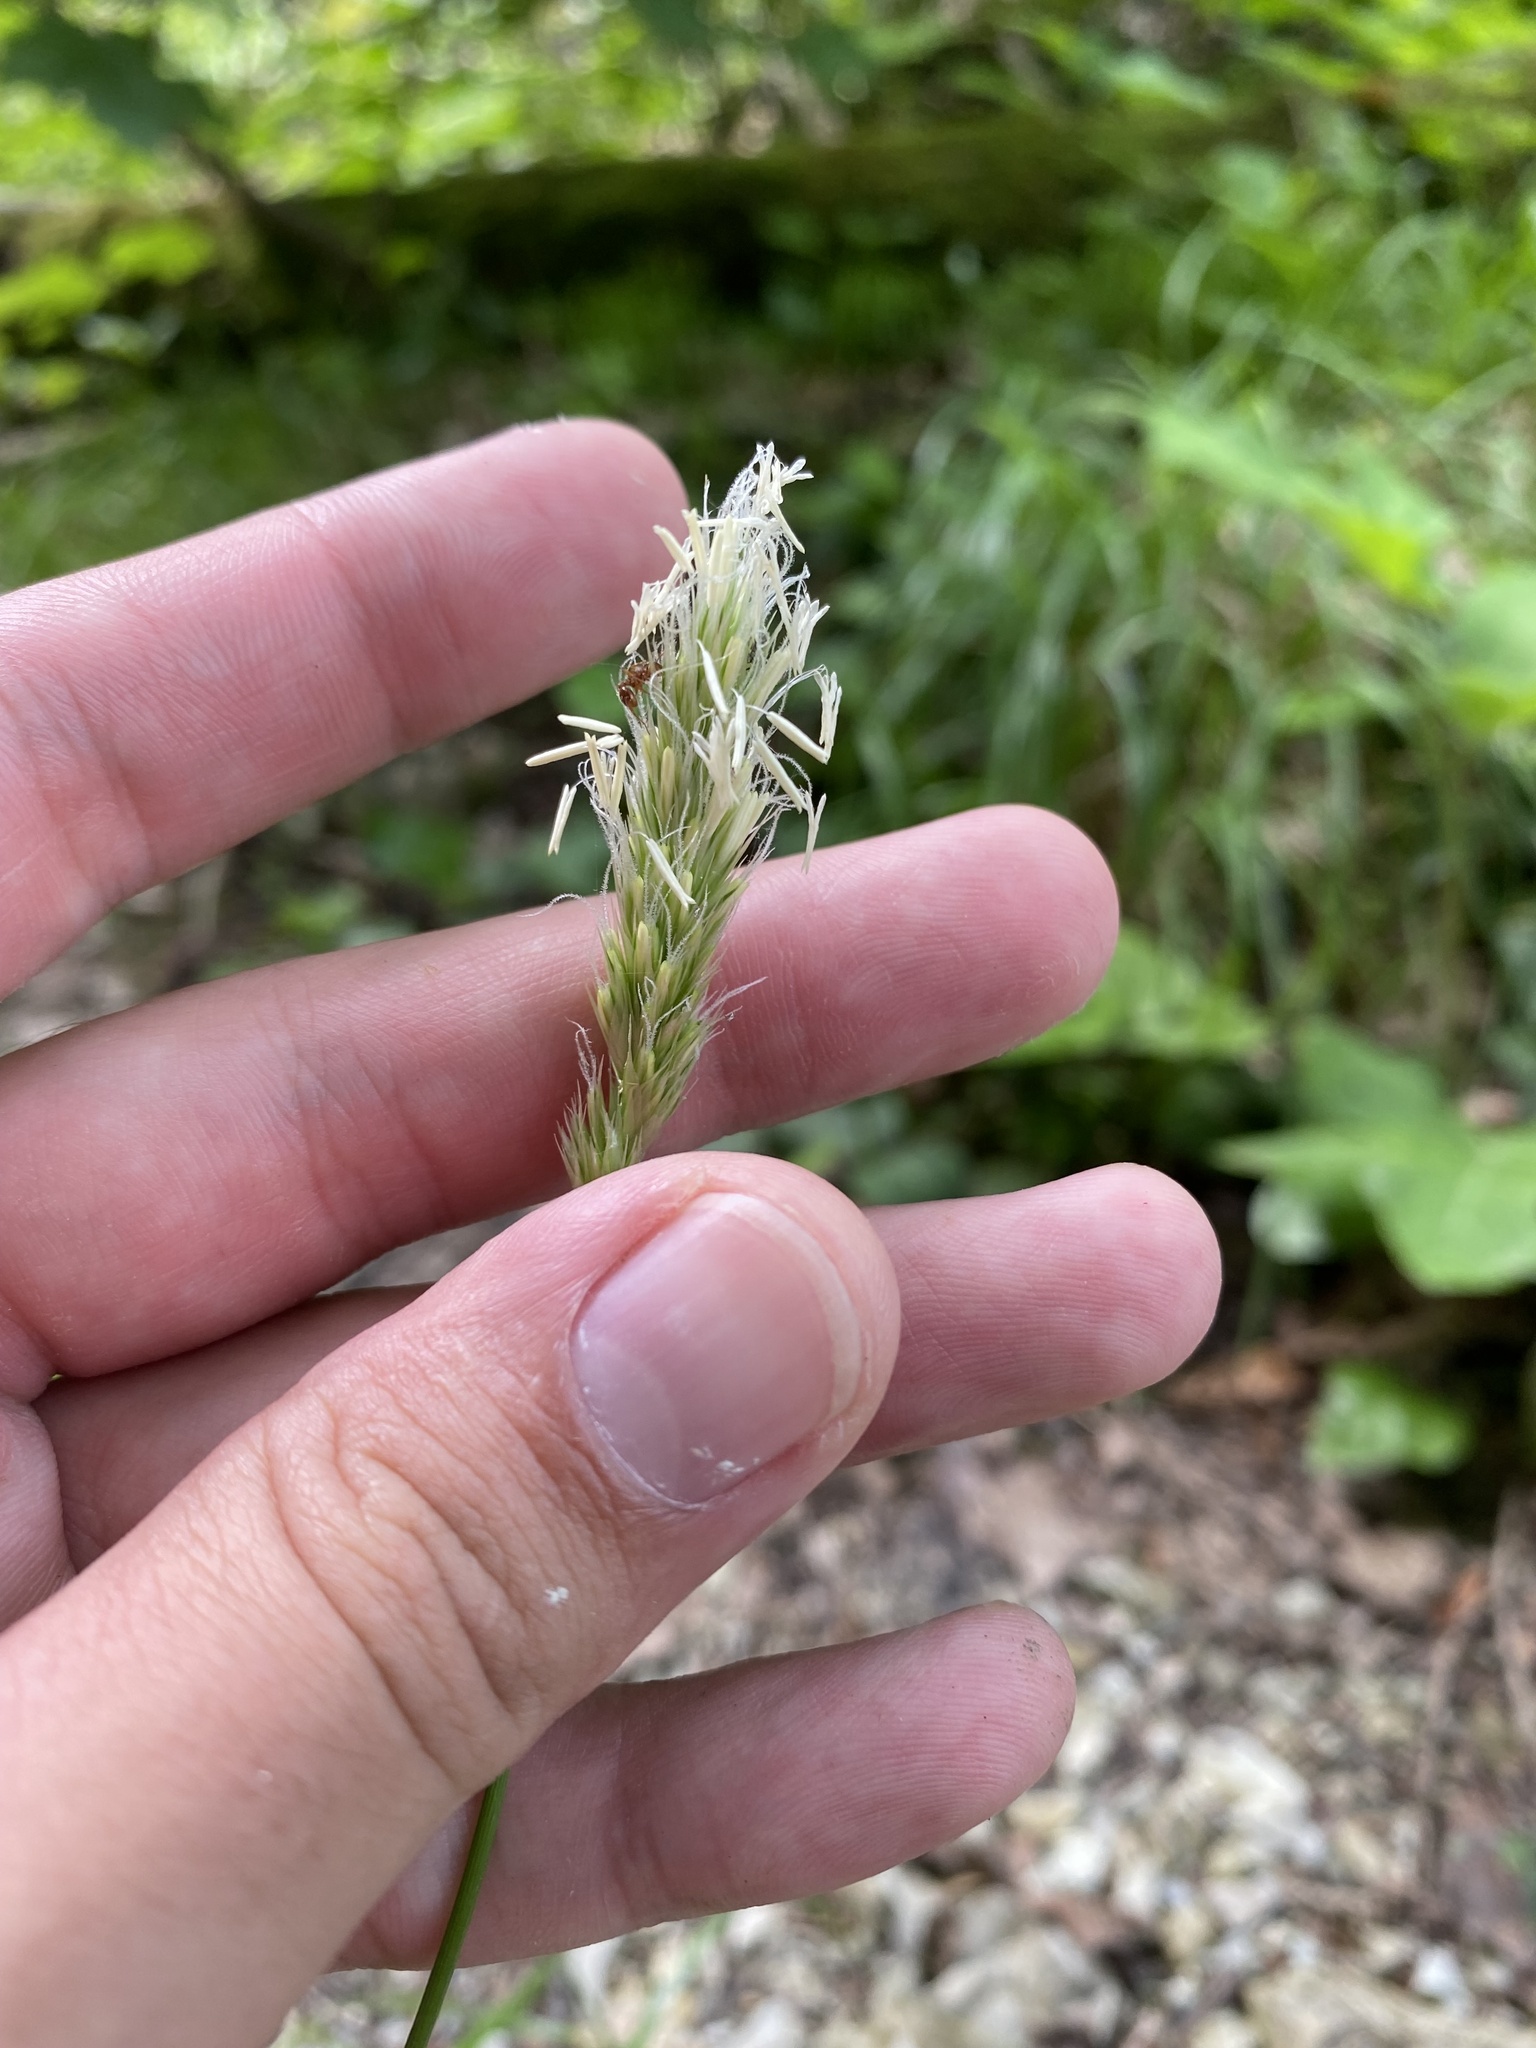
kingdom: Plantae
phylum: Tracheophyta
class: Liliopsida
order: Poales
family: Poaceae
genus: Anthoxanthum
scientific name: Anthoxanthum odoratum
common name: Sweet vernalgrass
